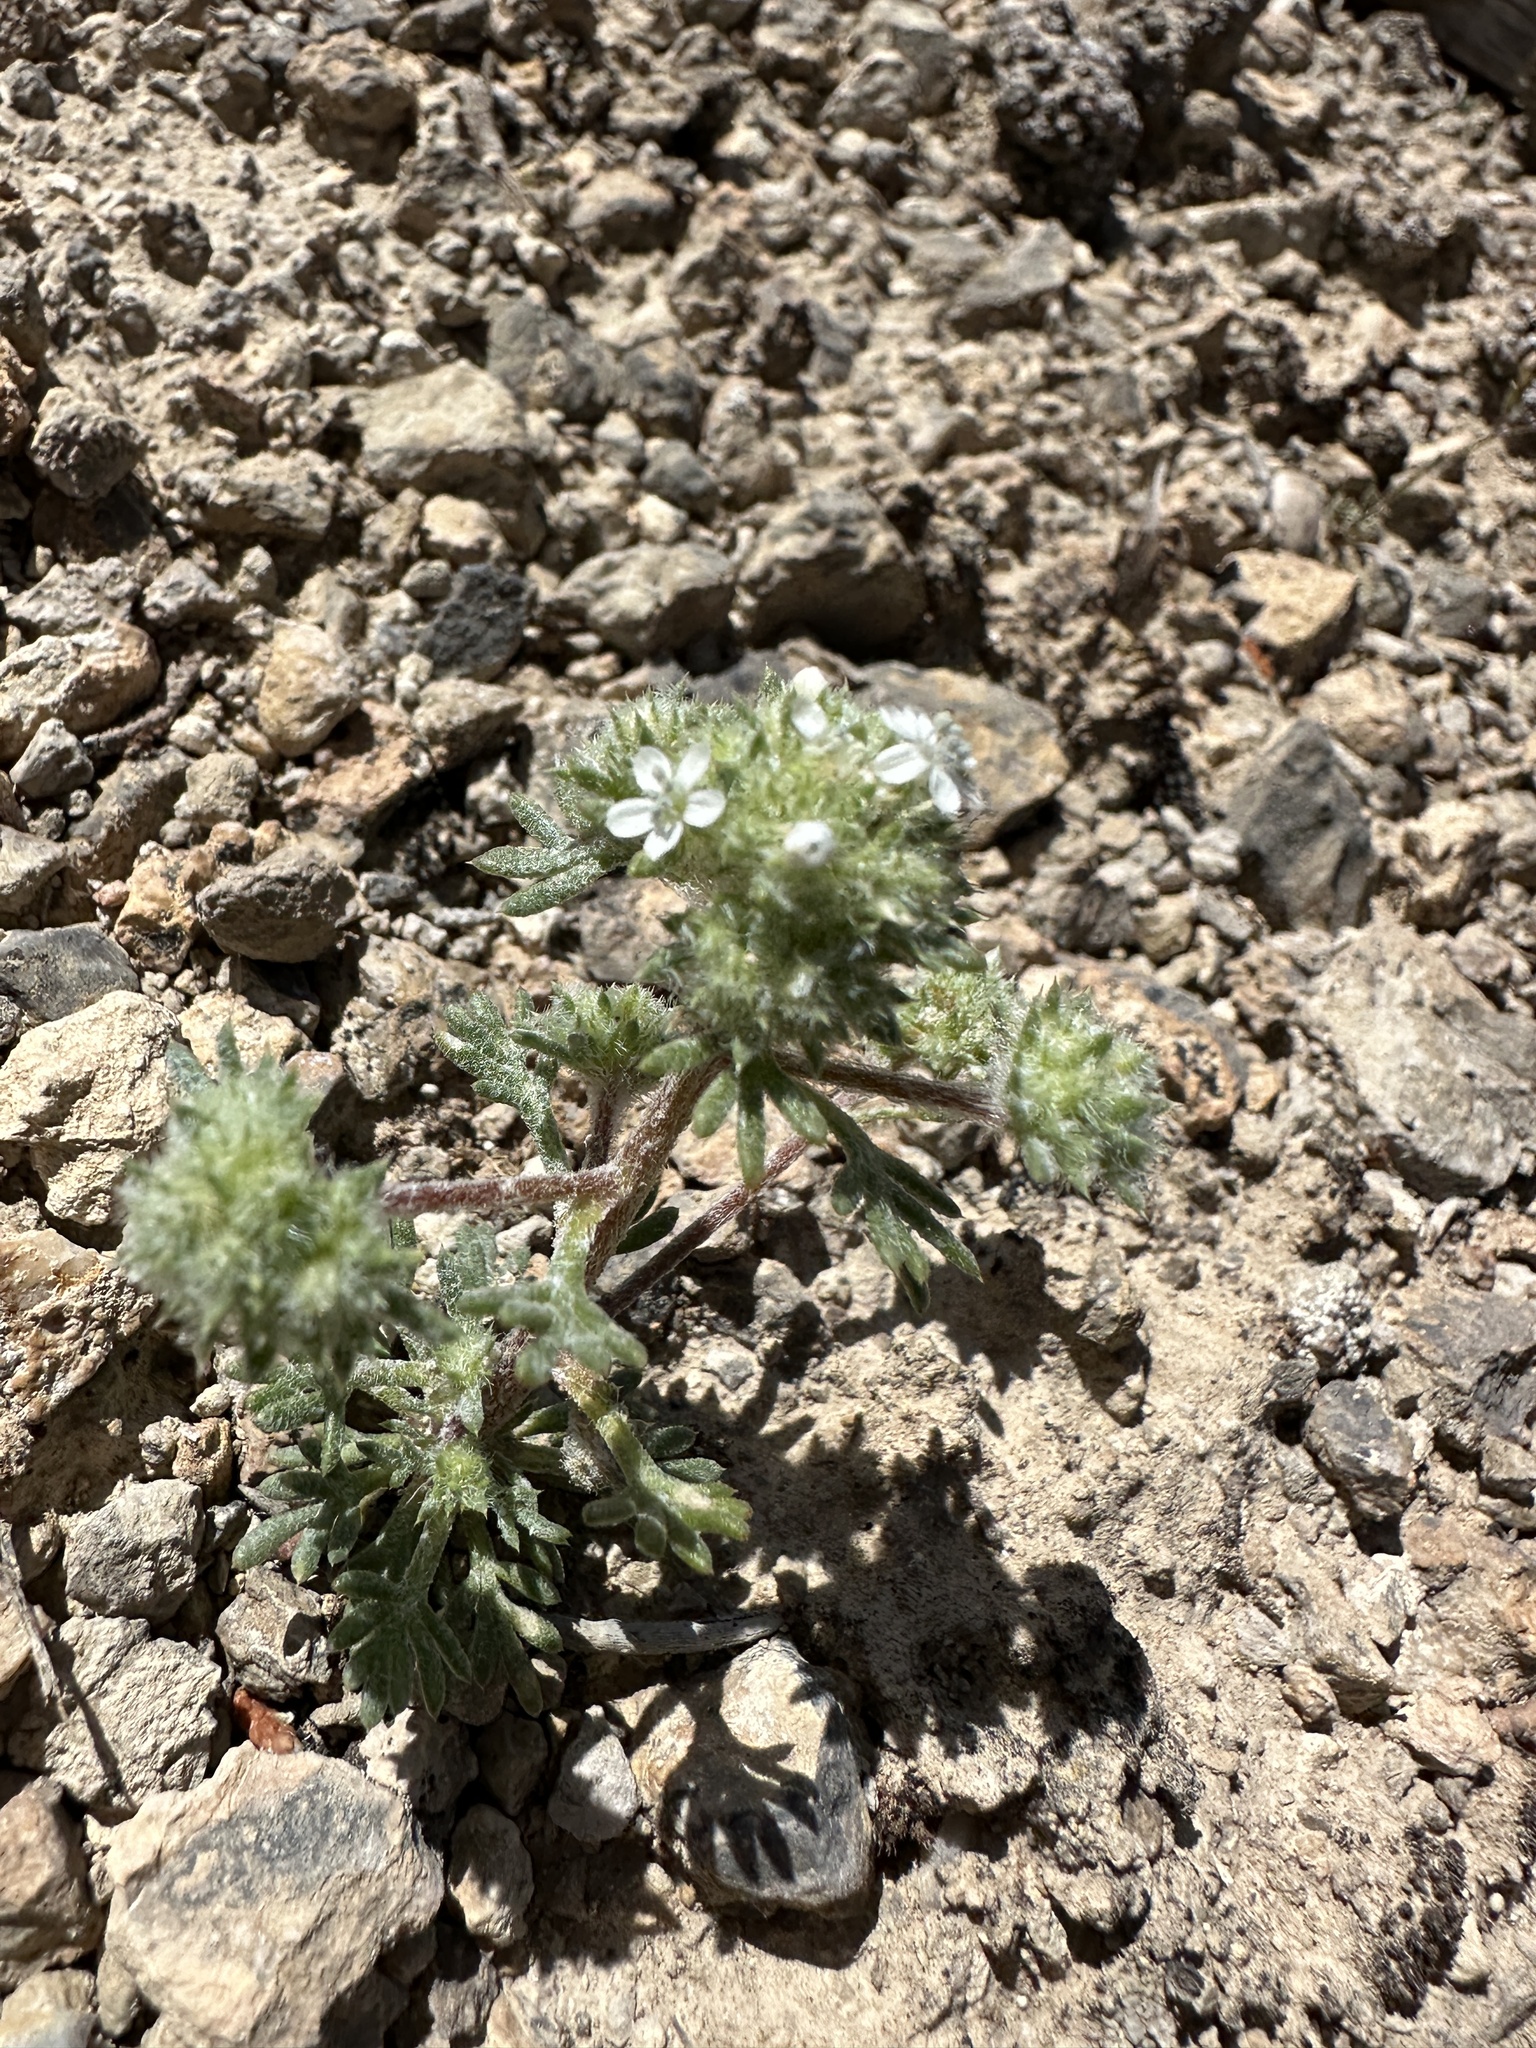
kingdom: Plantae
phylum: Tracheophyta
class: Magnoliopsida
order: Ericales
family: Polemoniaceae
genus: Ipomopsis
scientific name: Ipomopsis congesta
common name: Ball-head gilia
